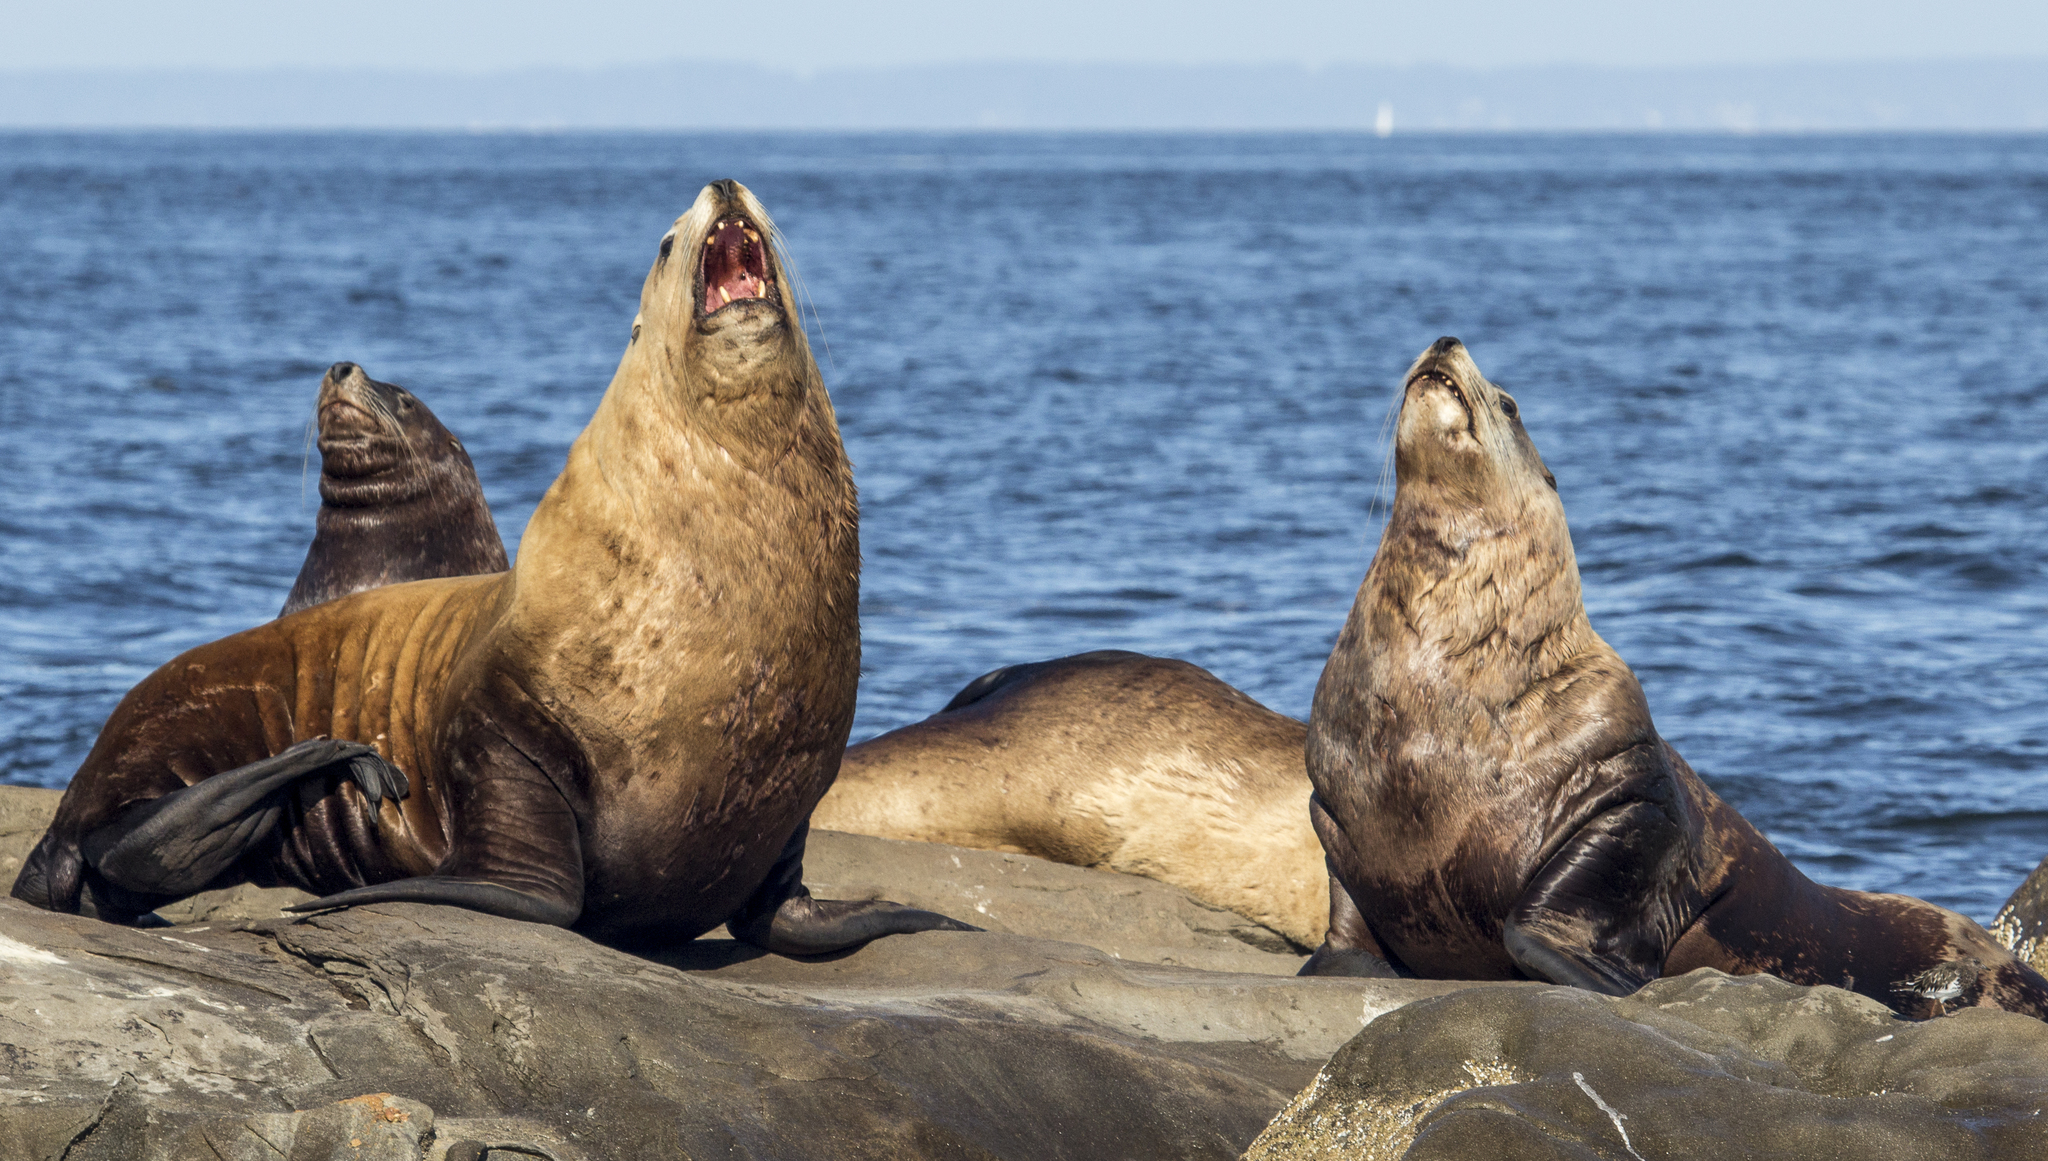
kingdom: Animalia
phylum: Chordata
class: Mammalia
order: Carnivora
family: Otariidae
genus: Eumetopias
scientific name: Eumetopias jubatus
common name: Steller sea lion
